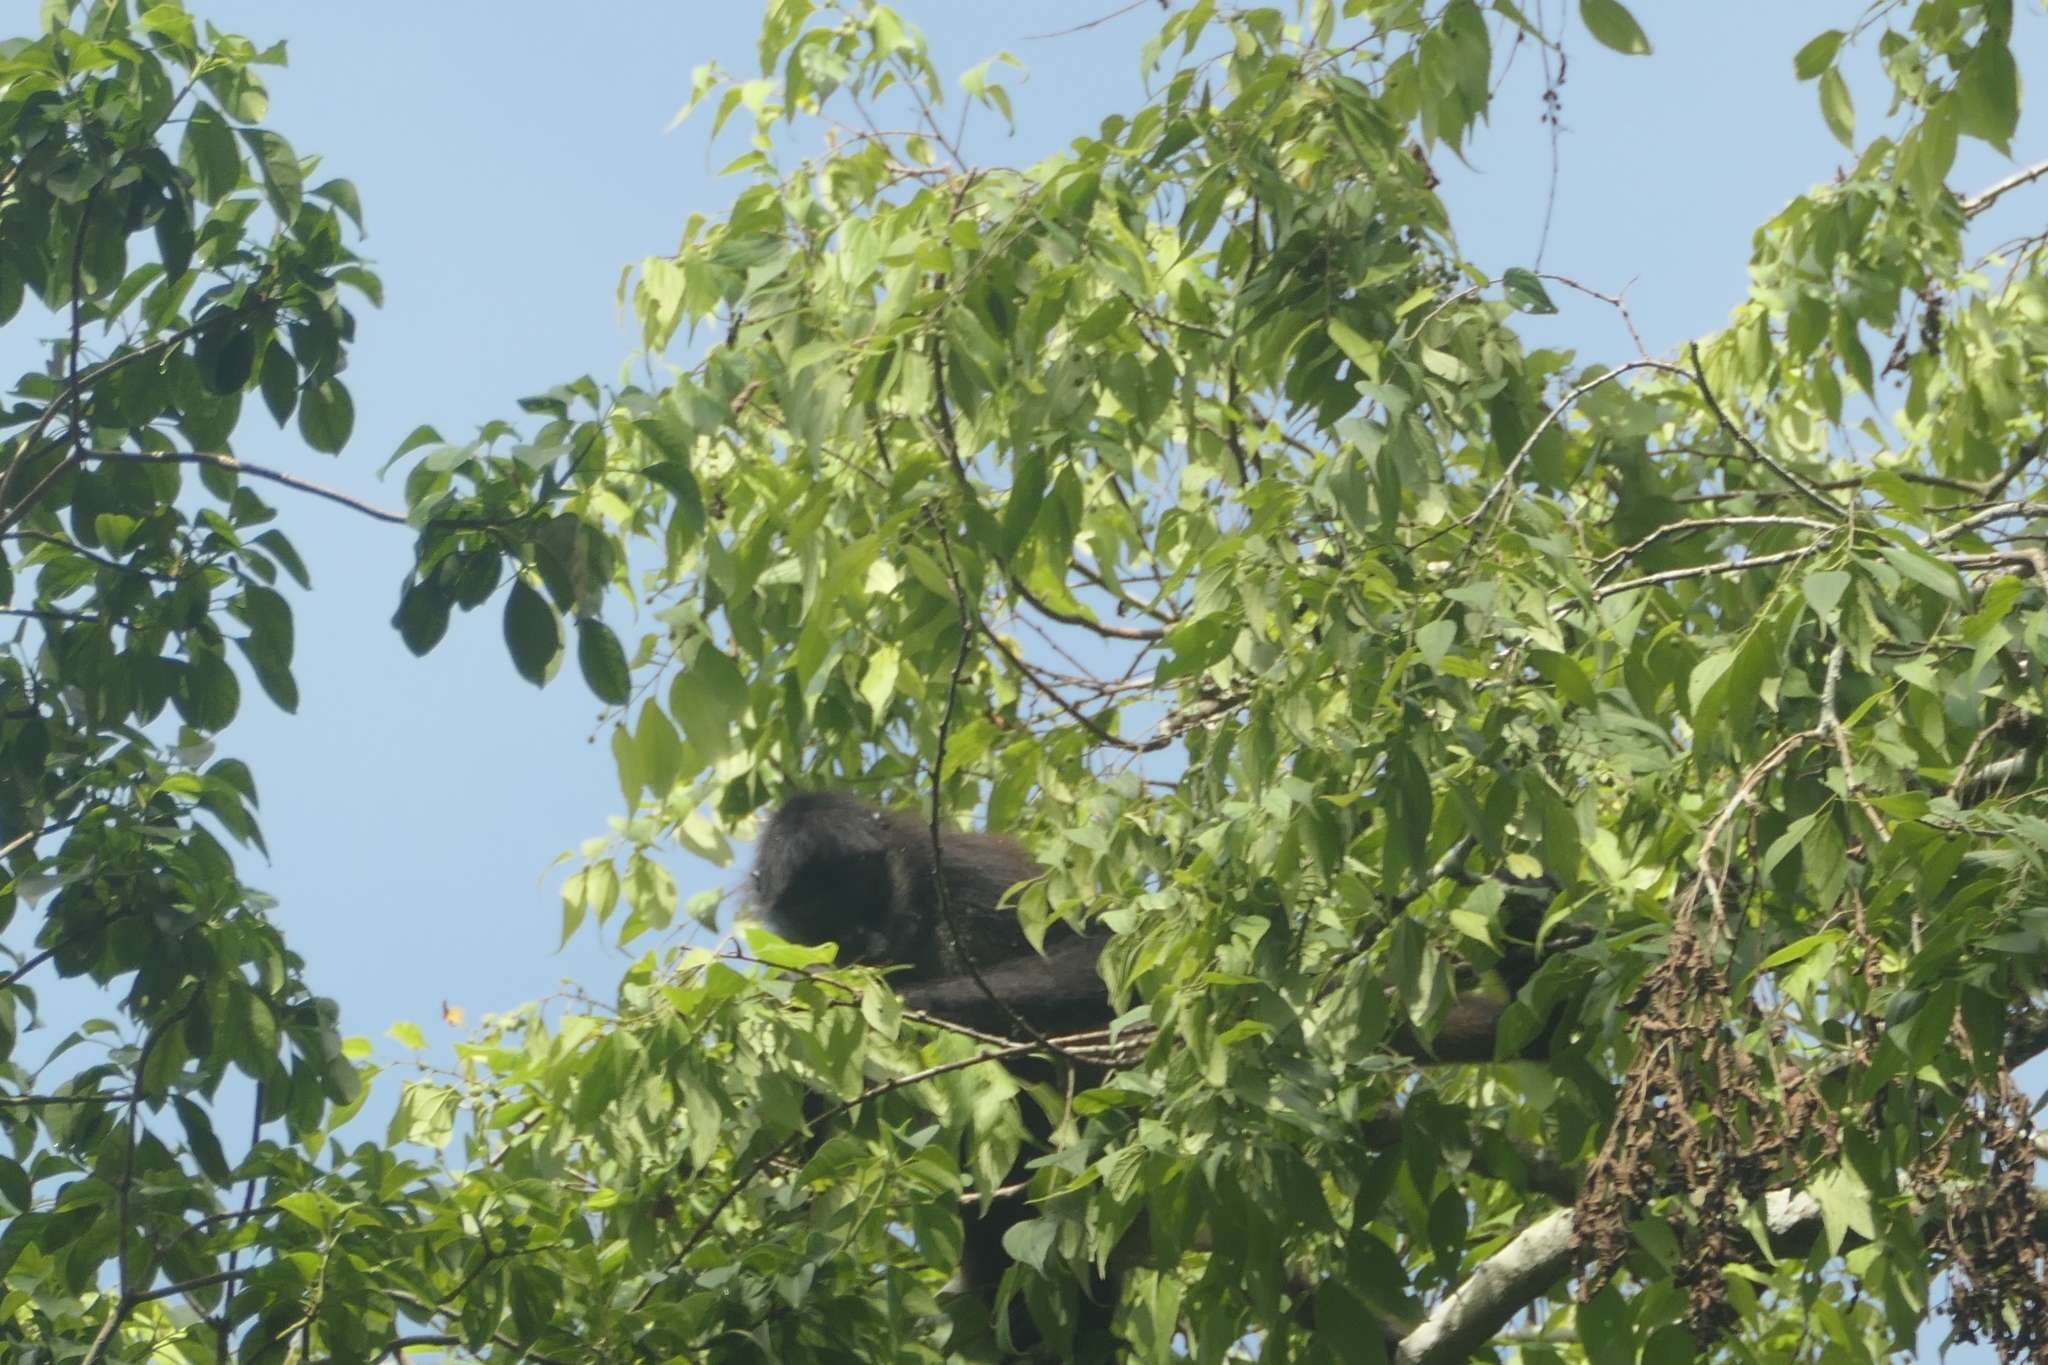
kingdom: Animalia
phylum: Chordata
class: Mammalia
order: Primates
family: Atelidae
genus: Ateles
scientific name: Ateles geoffroyi
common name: Black-handed spider monkey
